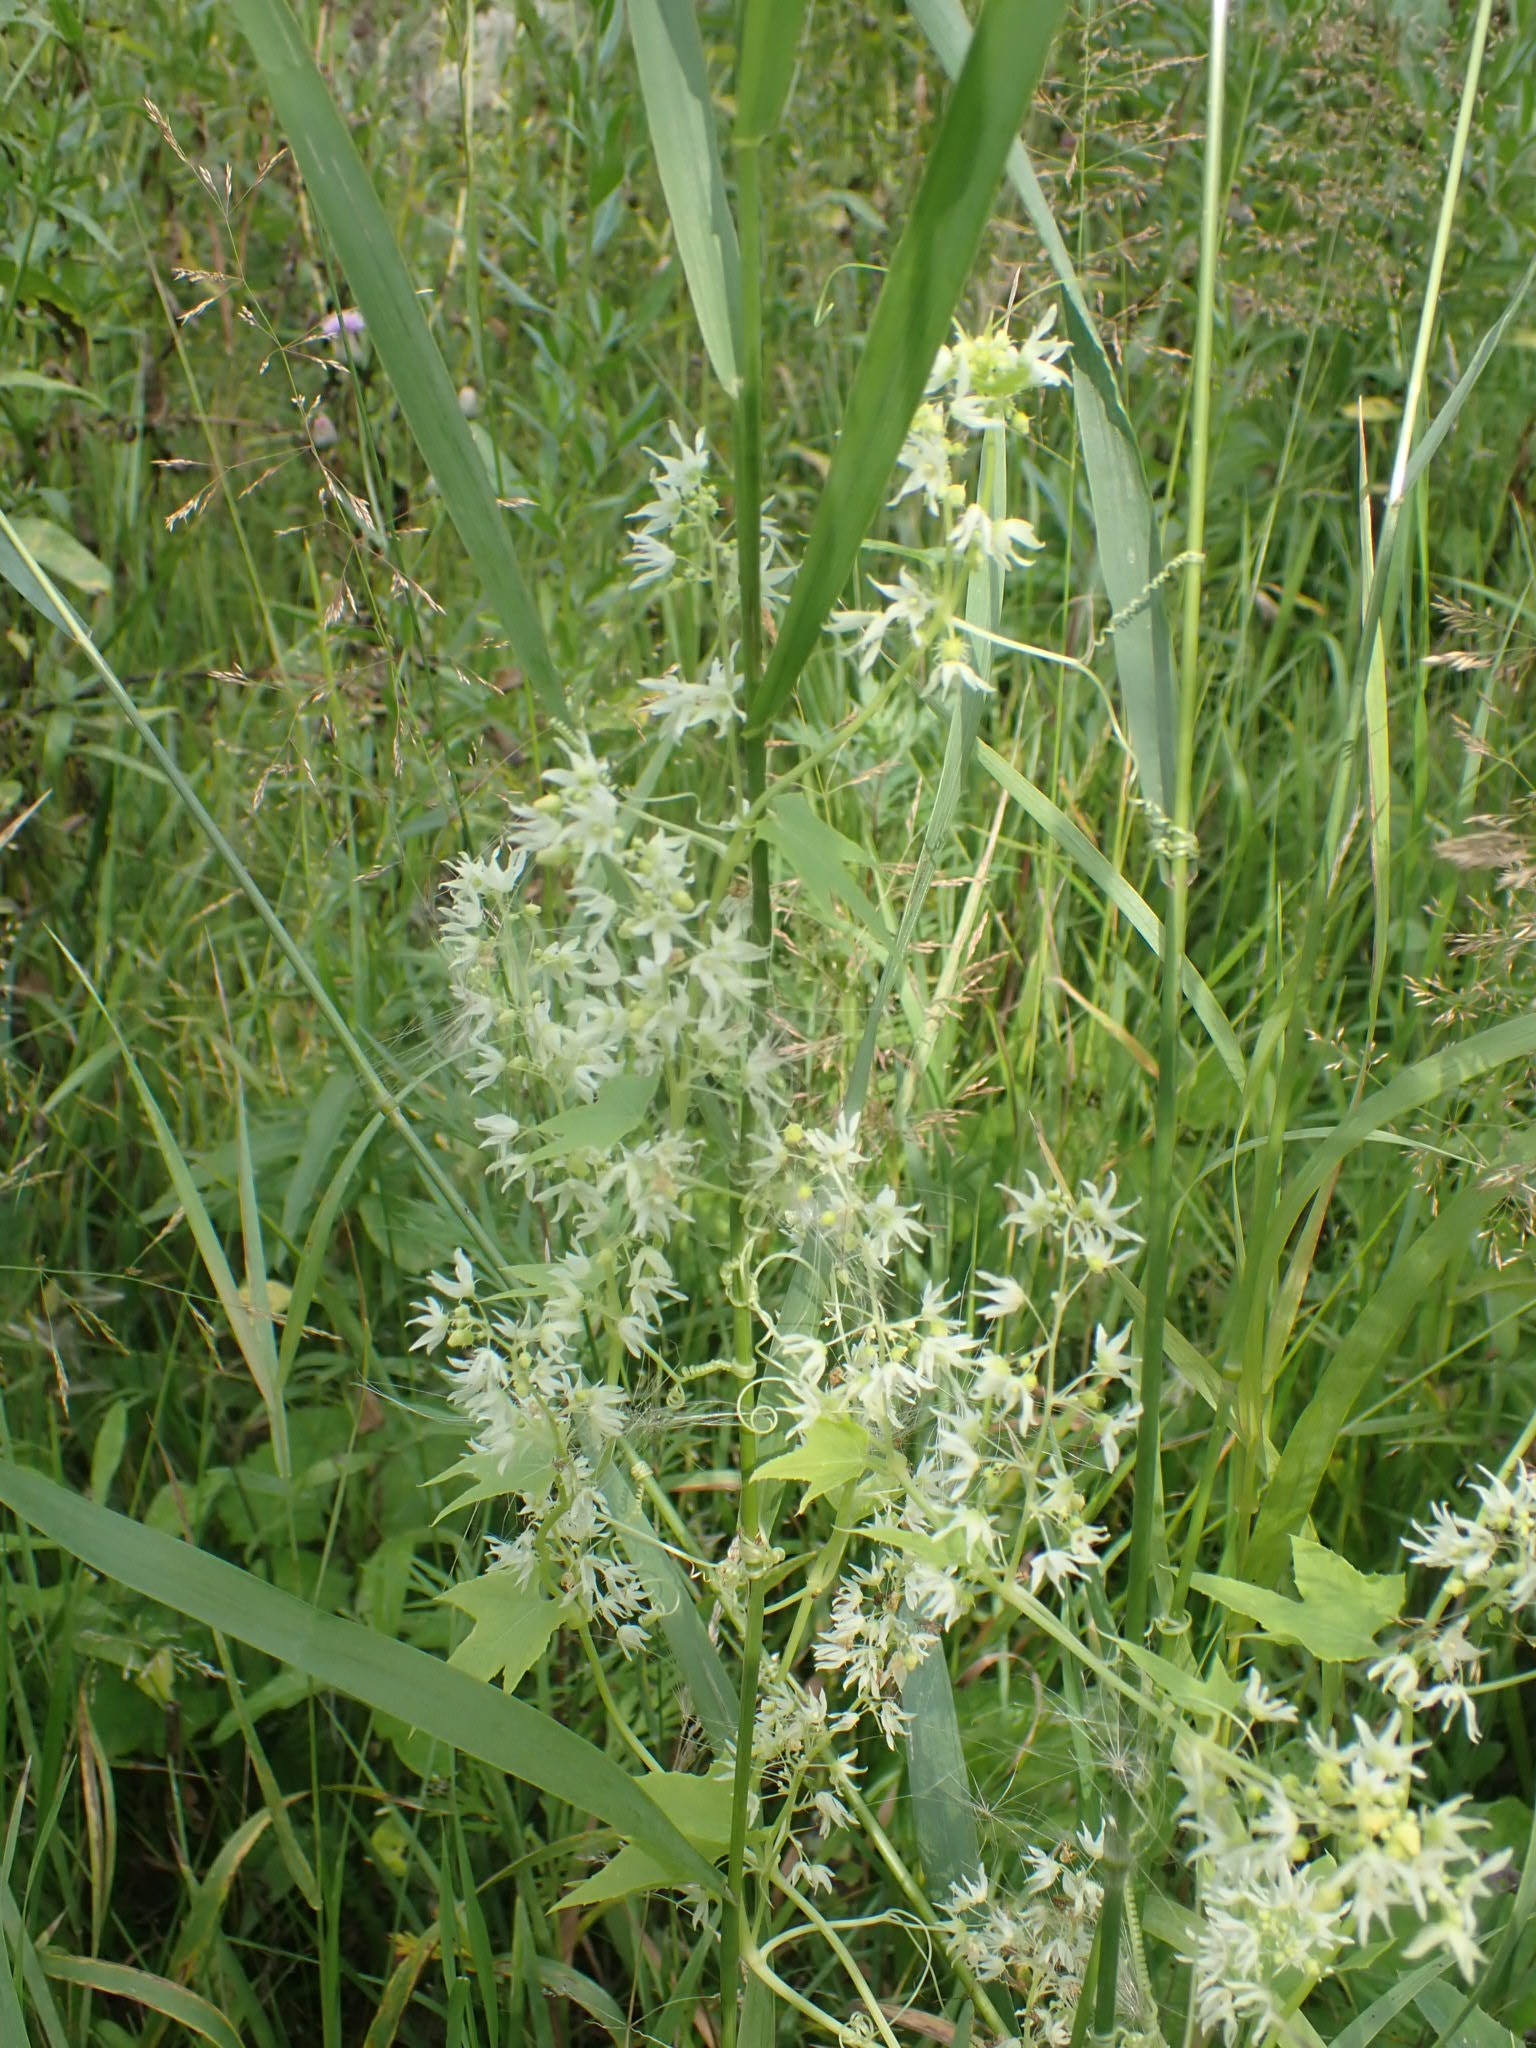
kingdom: Plantae
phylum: Tracheophyta
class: Magnoliopsida
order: Cucurbitales
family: Cucurbitaceae
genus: Echinocystis
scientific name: Echinocystis lobata
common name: Wild cucumber
